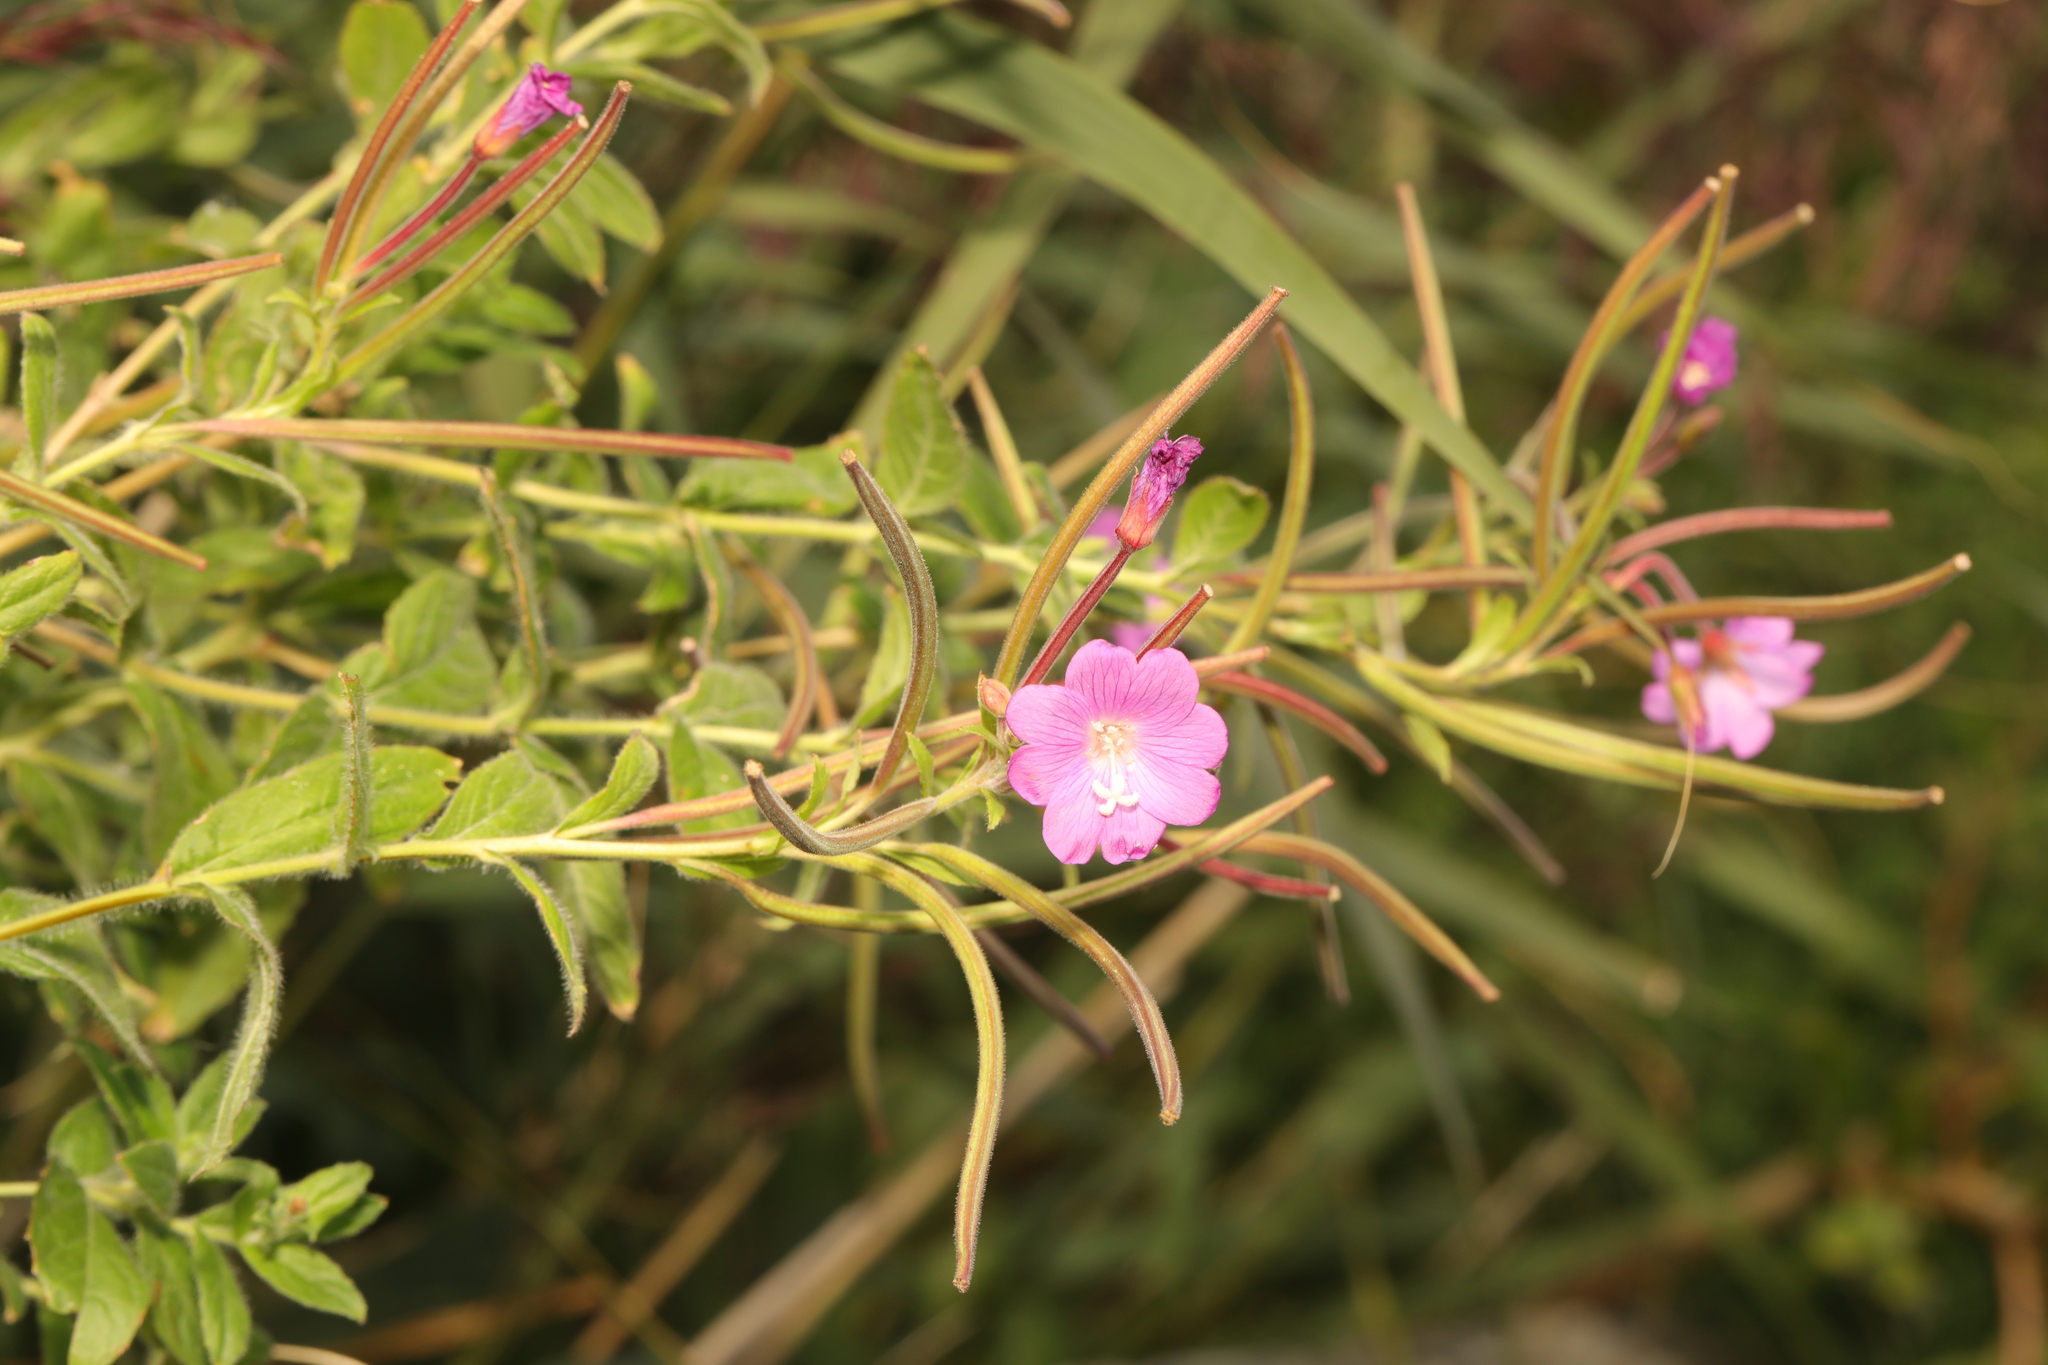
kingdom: Plantae
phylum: Tracheophyta
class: Magnoliopsida
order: Myrtales
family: Onagraceae
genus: Epilobium
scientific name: Epilobium hirsutum
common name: Great willowherb
